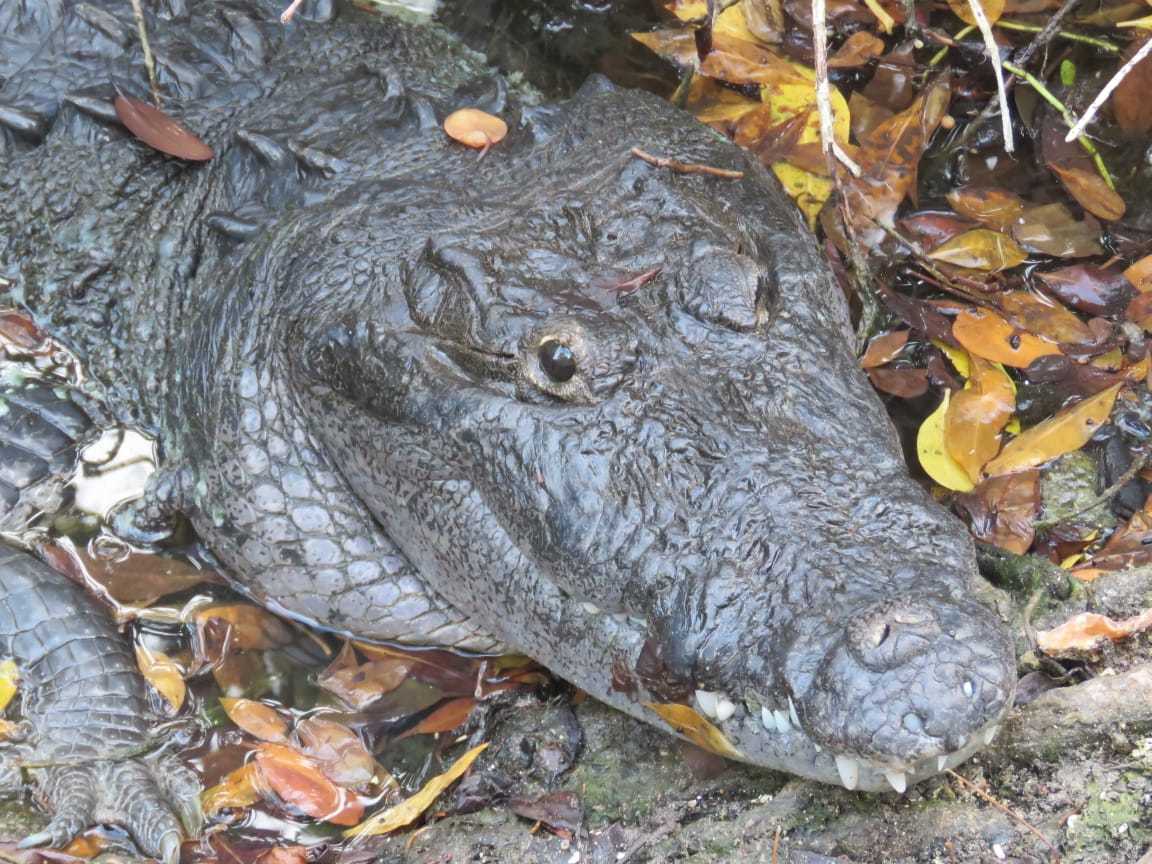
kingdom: Animalia
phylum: Chordata
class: Crocodylia
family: Crocodylidae
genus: Crocodylus
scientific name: Crocodylus moreletii
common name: Morelet's crocodile
